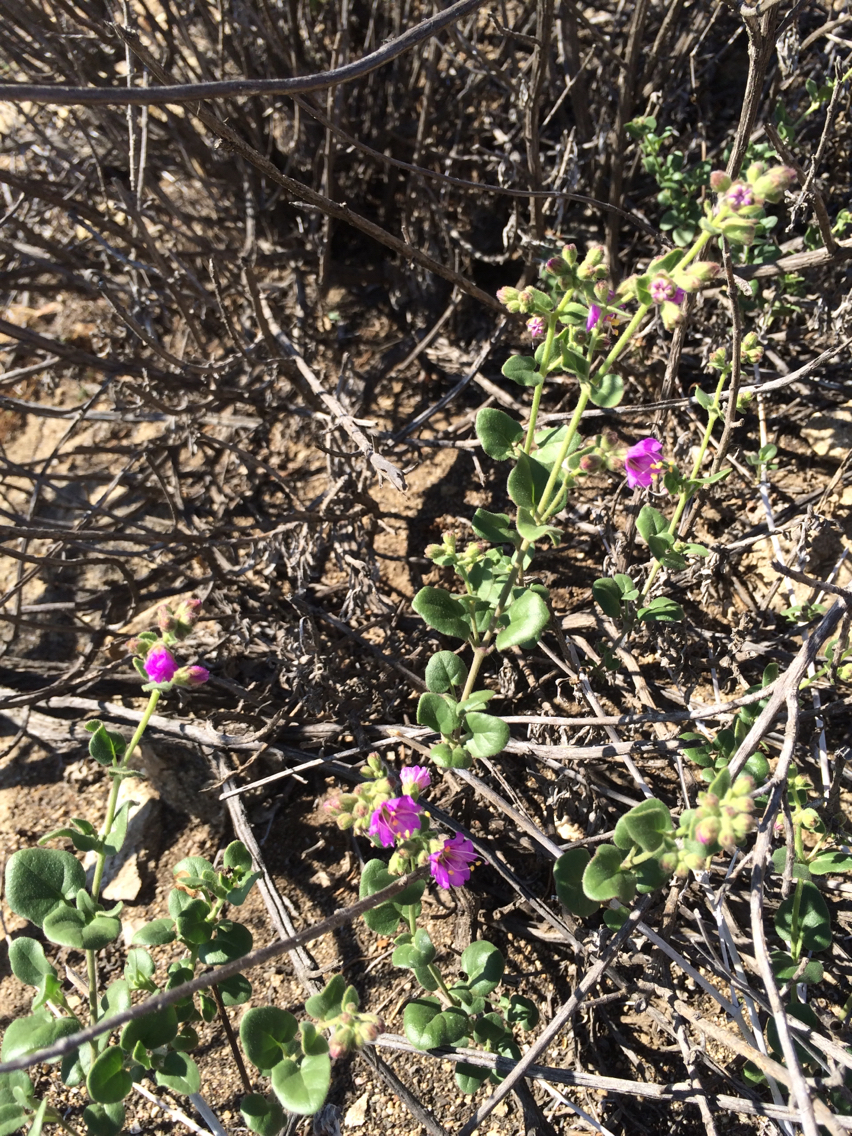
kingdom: Plantae
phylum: Tracheophyta
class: Magnoliopsida
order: Caryophyllales
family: Nyctaginaceae
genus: Mirabilis
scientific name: Mirabilis laevis
